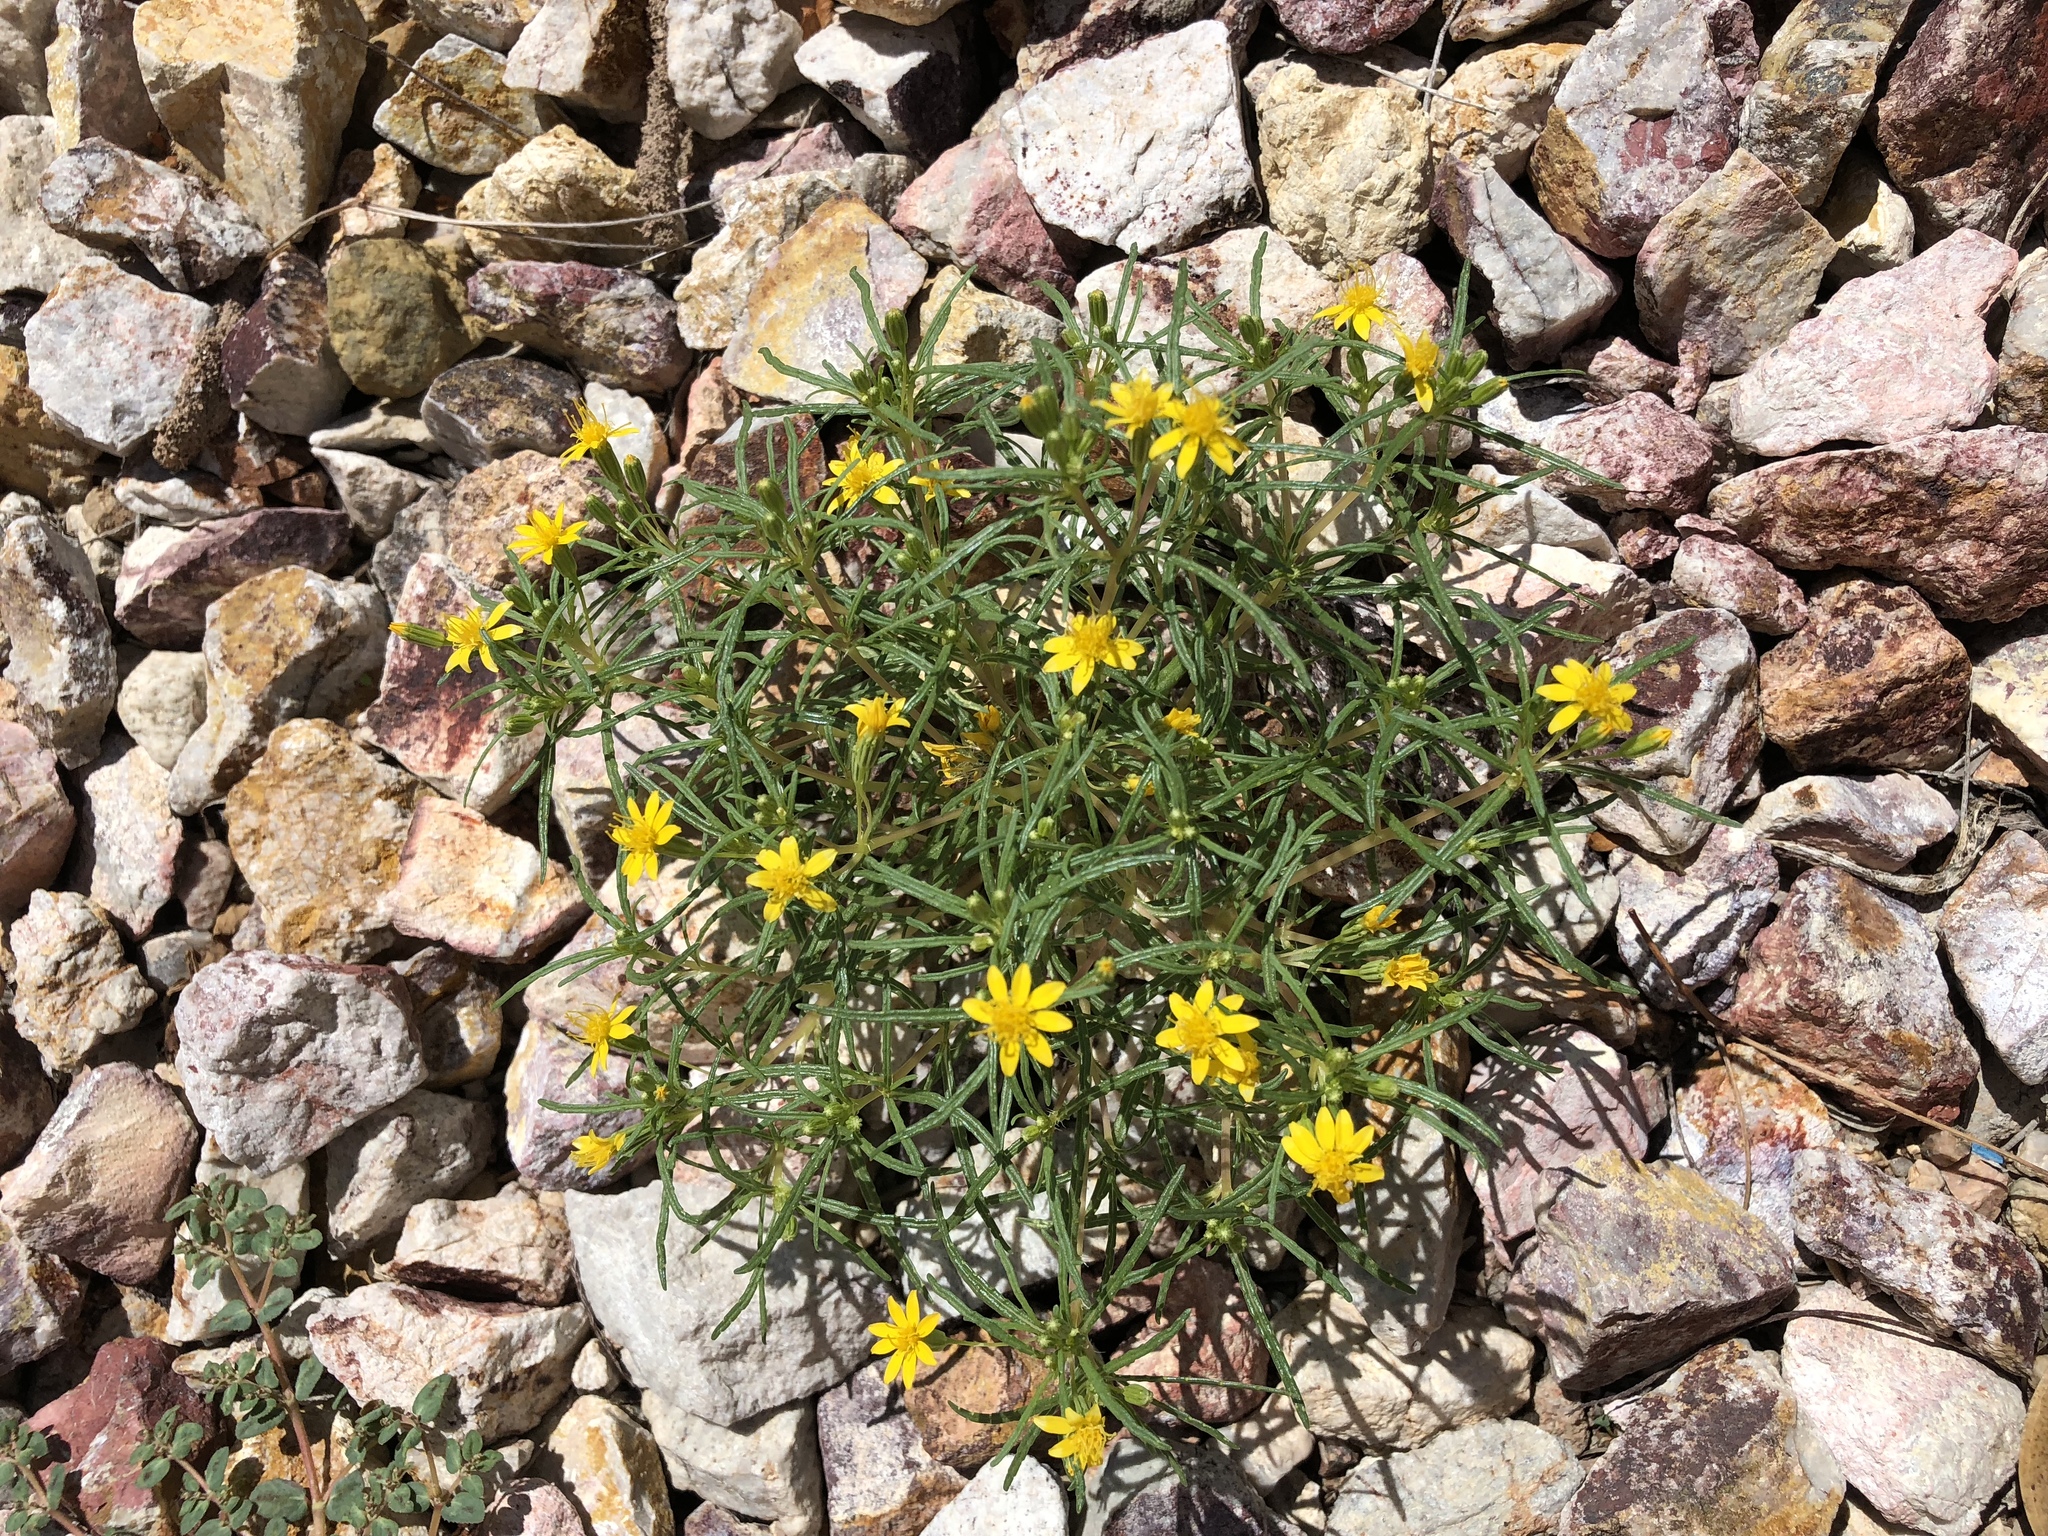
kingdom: Plantae
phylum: Tracheophyta
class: Magnoliopsida
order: Asterales
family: Asteraceae
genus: Pectis
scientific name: Pectis papposa
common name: Many-bristle chinchweed
